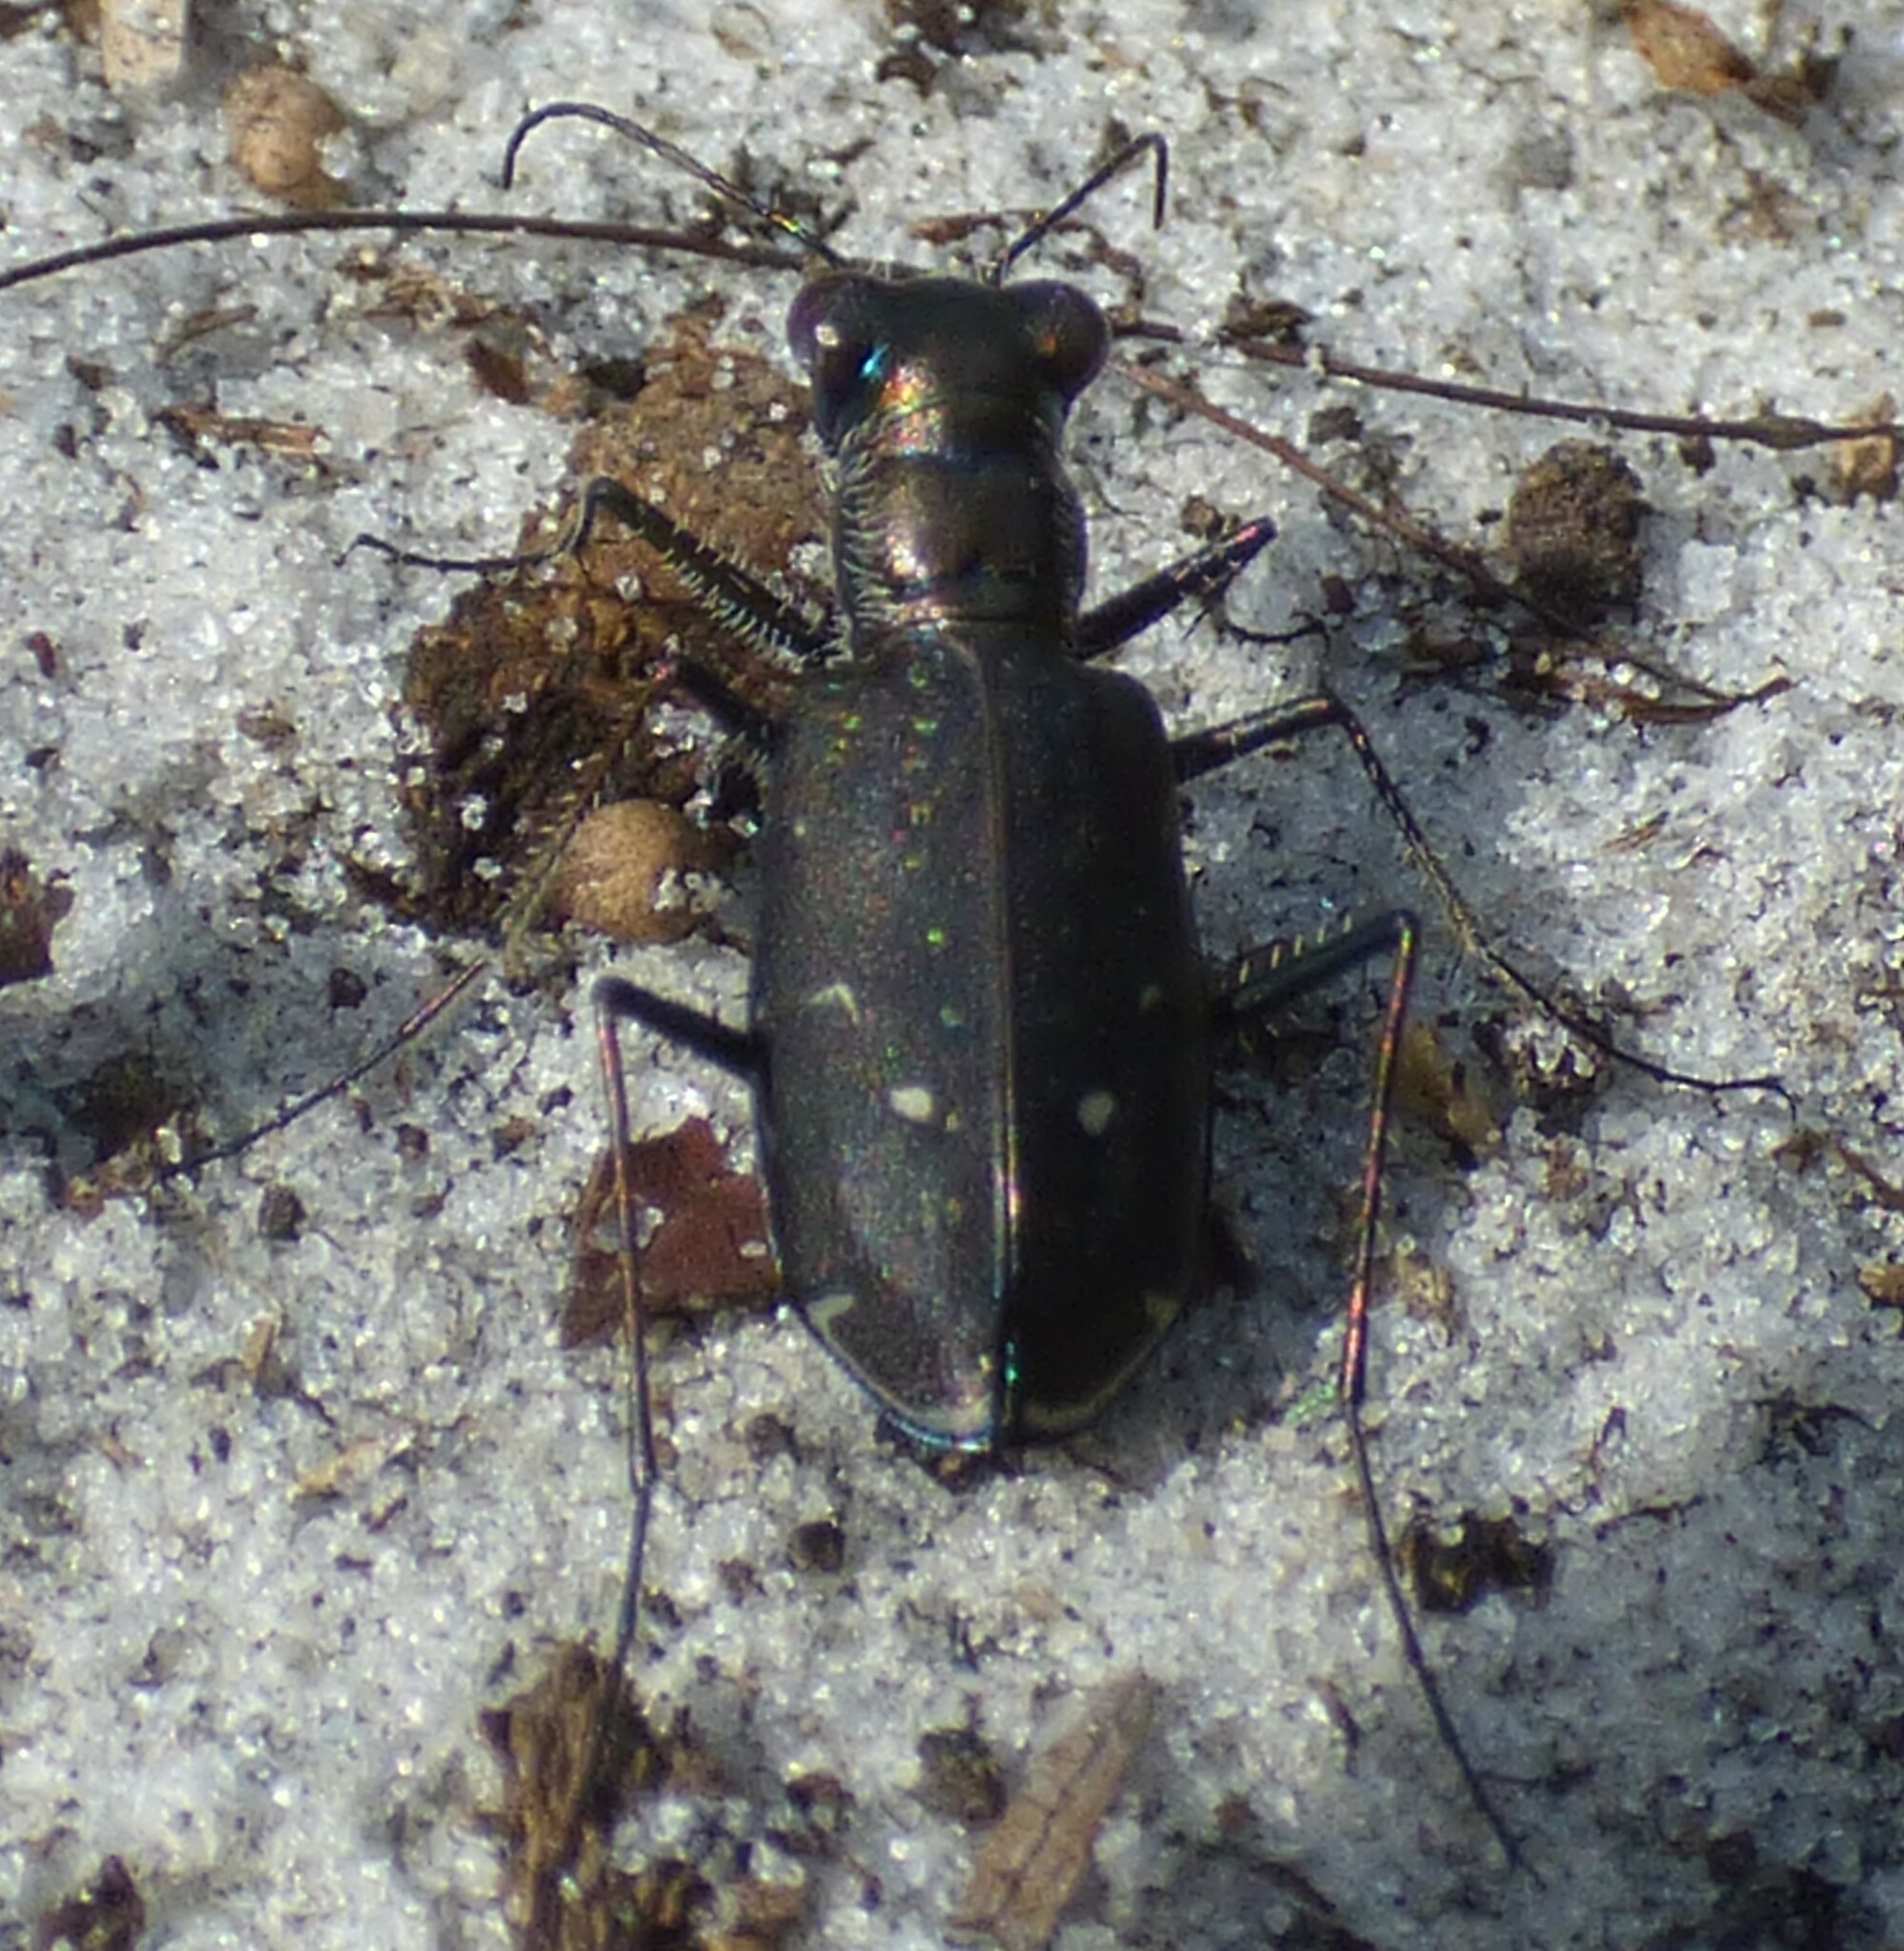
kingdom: Animalia
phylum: Arthropoda
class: Insecta
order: Coleoptera
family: Carabidae
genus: Cicindela
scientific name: Cicindela punctulata
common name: Punctured tiger beetle
